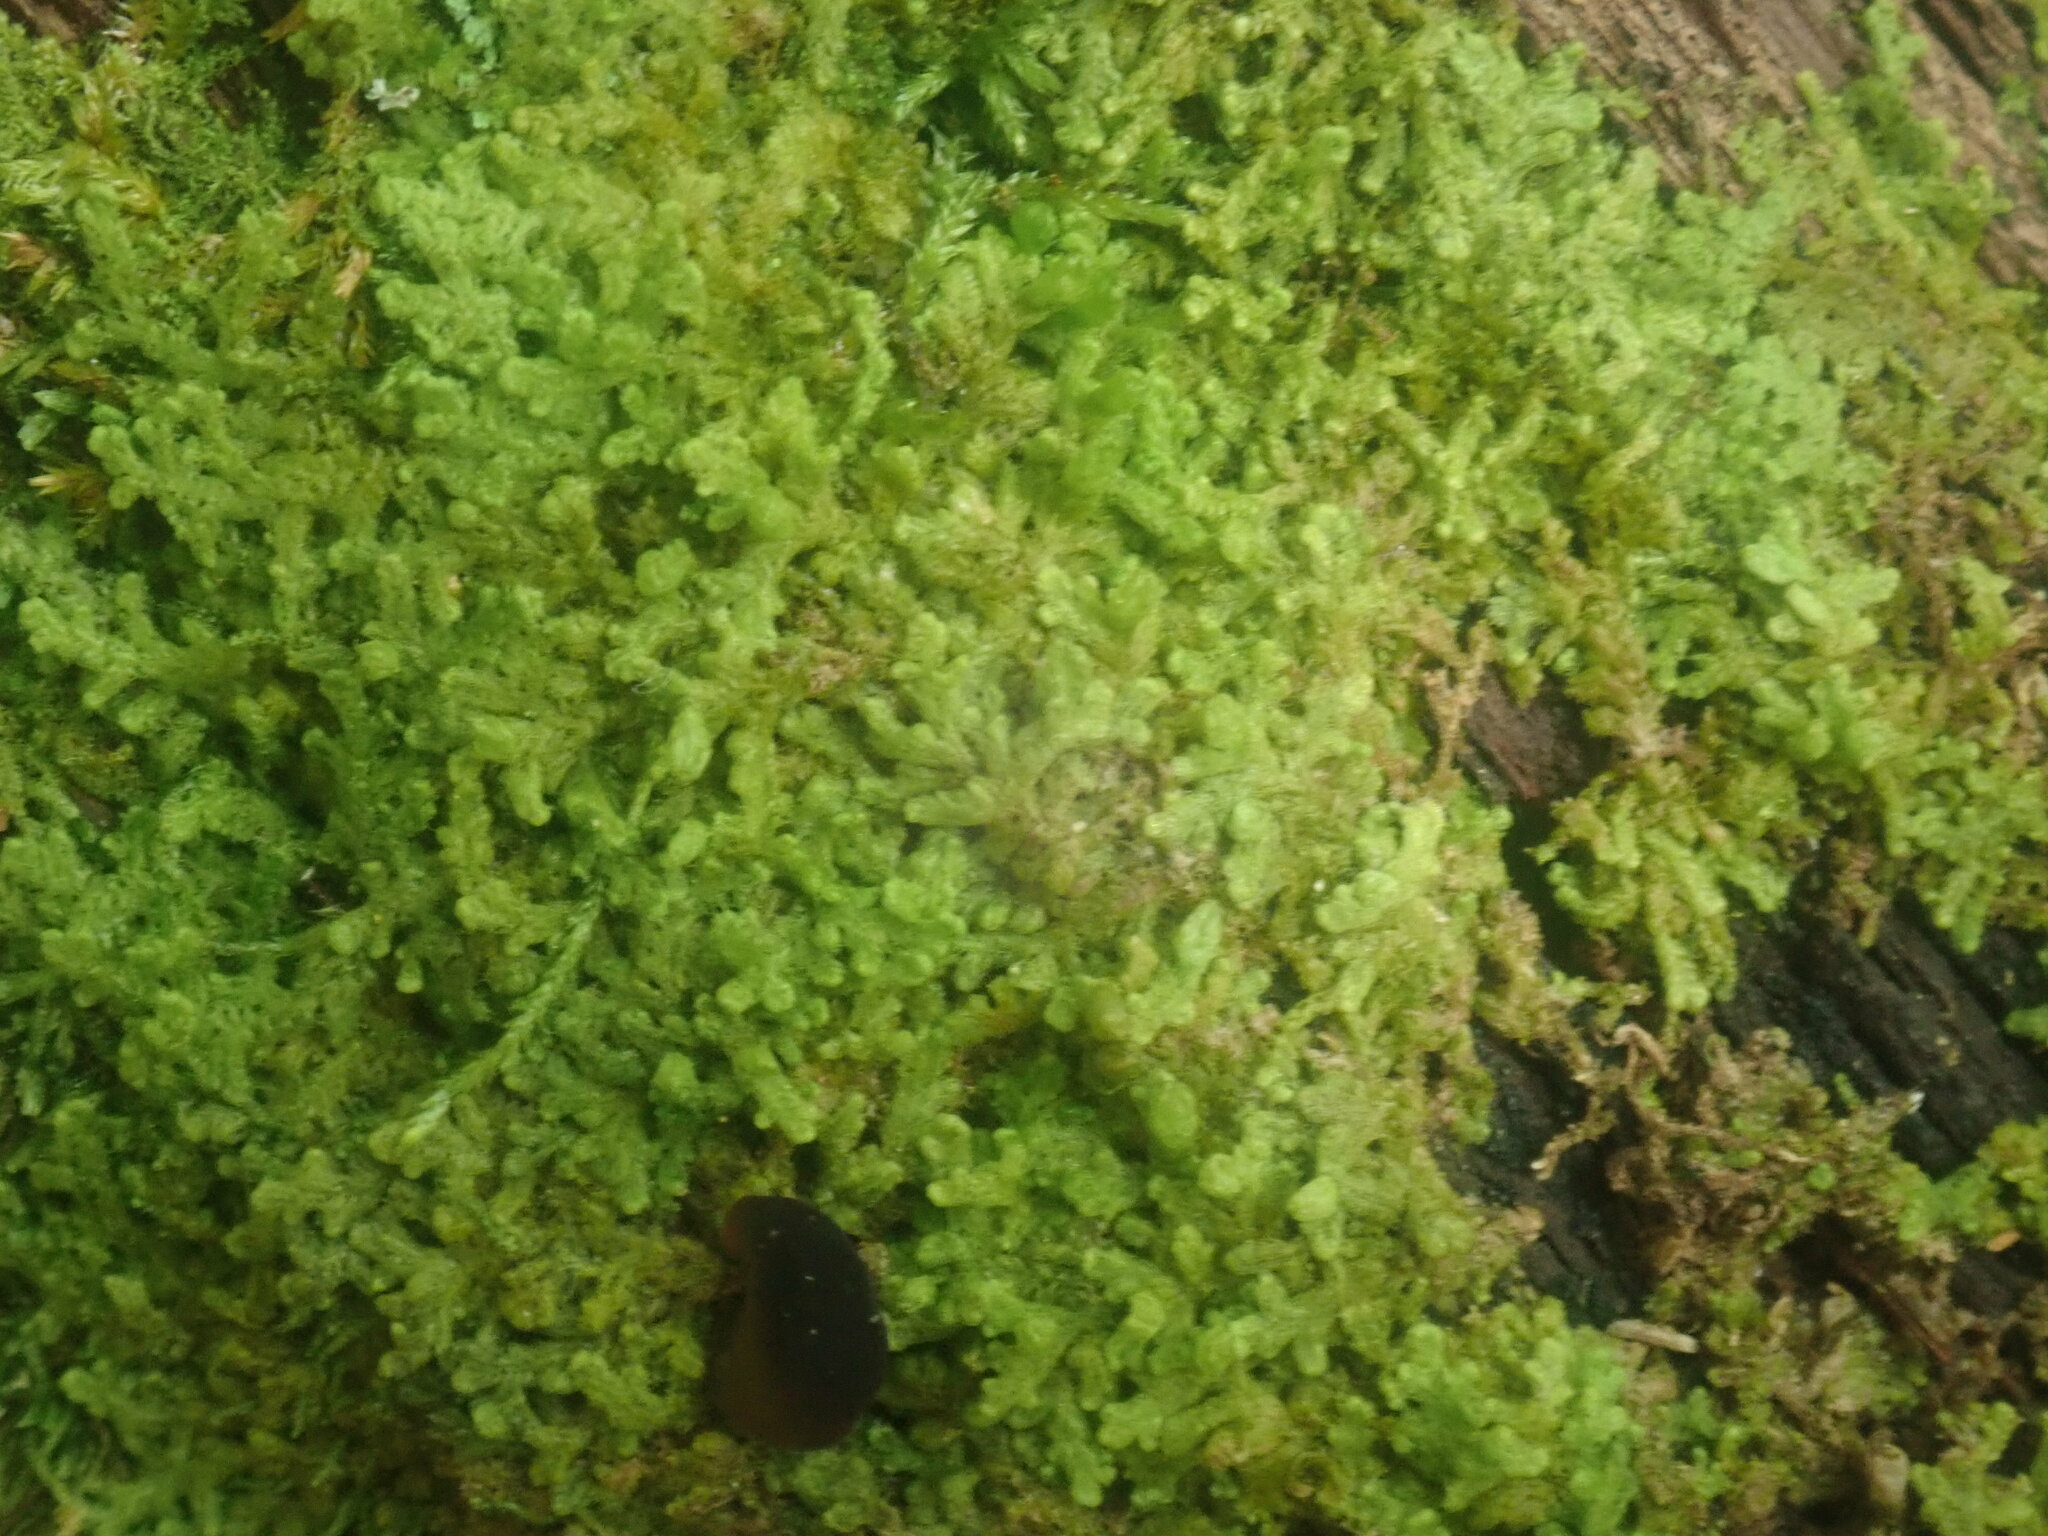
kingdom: Plantae
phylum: Marchantiophyta
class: Jungermanniopsida
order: Ptilidiales
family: Ptilidiaceae
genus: Ptilidium
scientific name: Ptilidium pulcherrimum
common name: Tree fringewort
